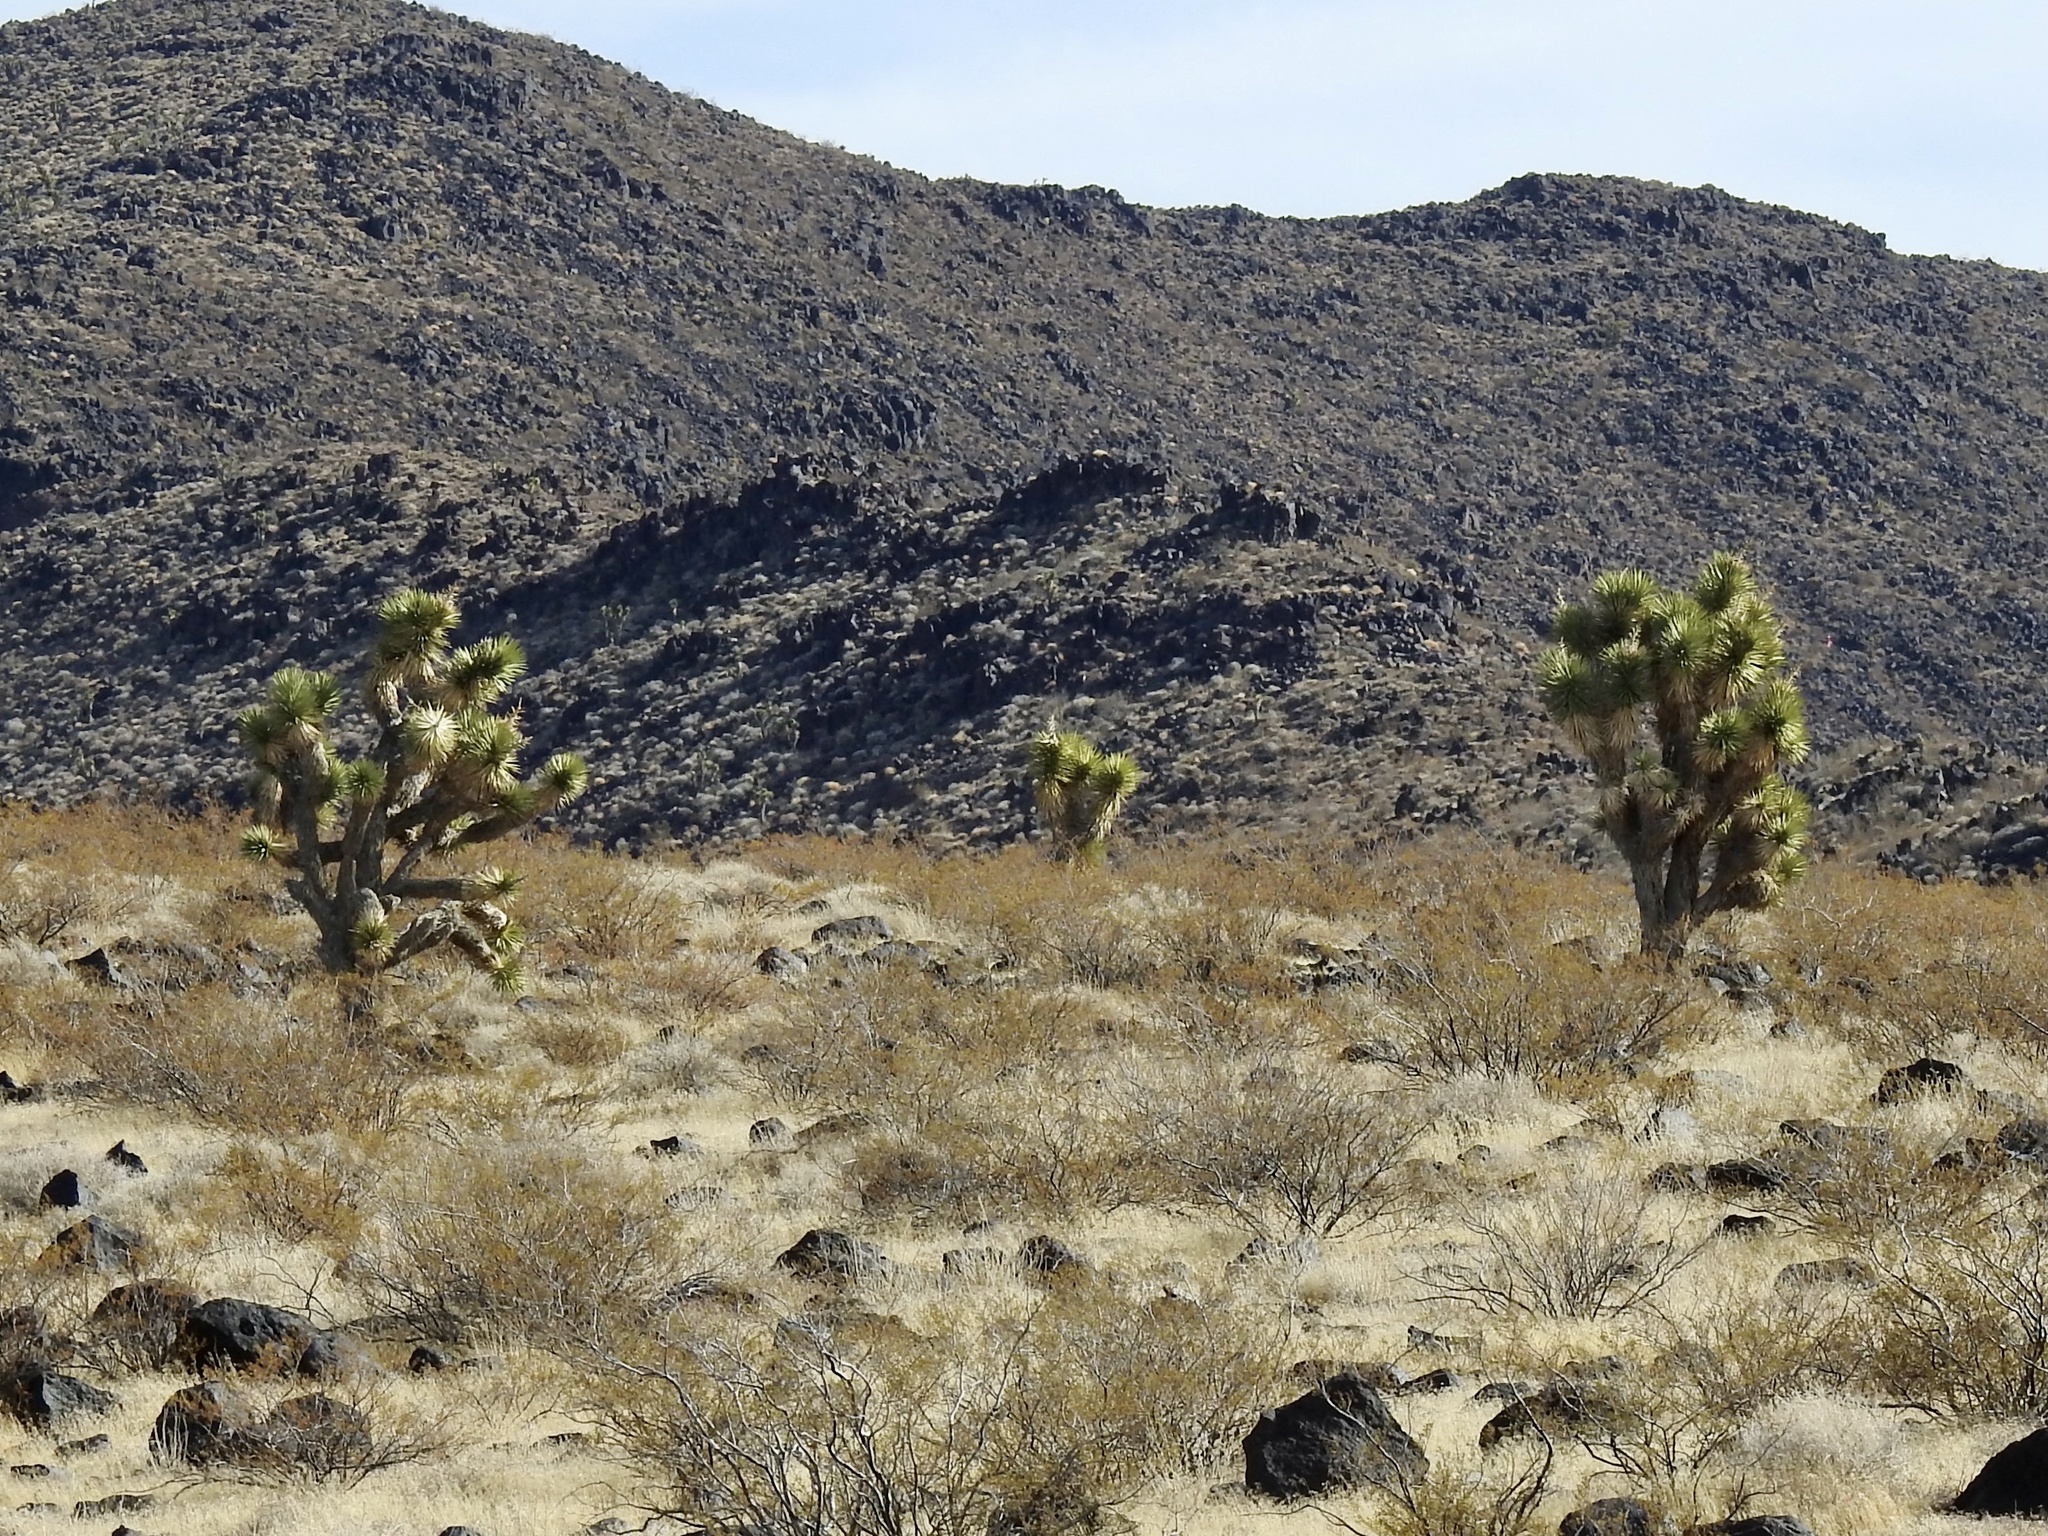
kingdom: Plantae
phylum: Tracheophyta
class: Liliopsida
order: Asparagales
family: Asparagaceae
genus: Yucca
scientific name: Yucca brevifolia
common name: Joshua tree
